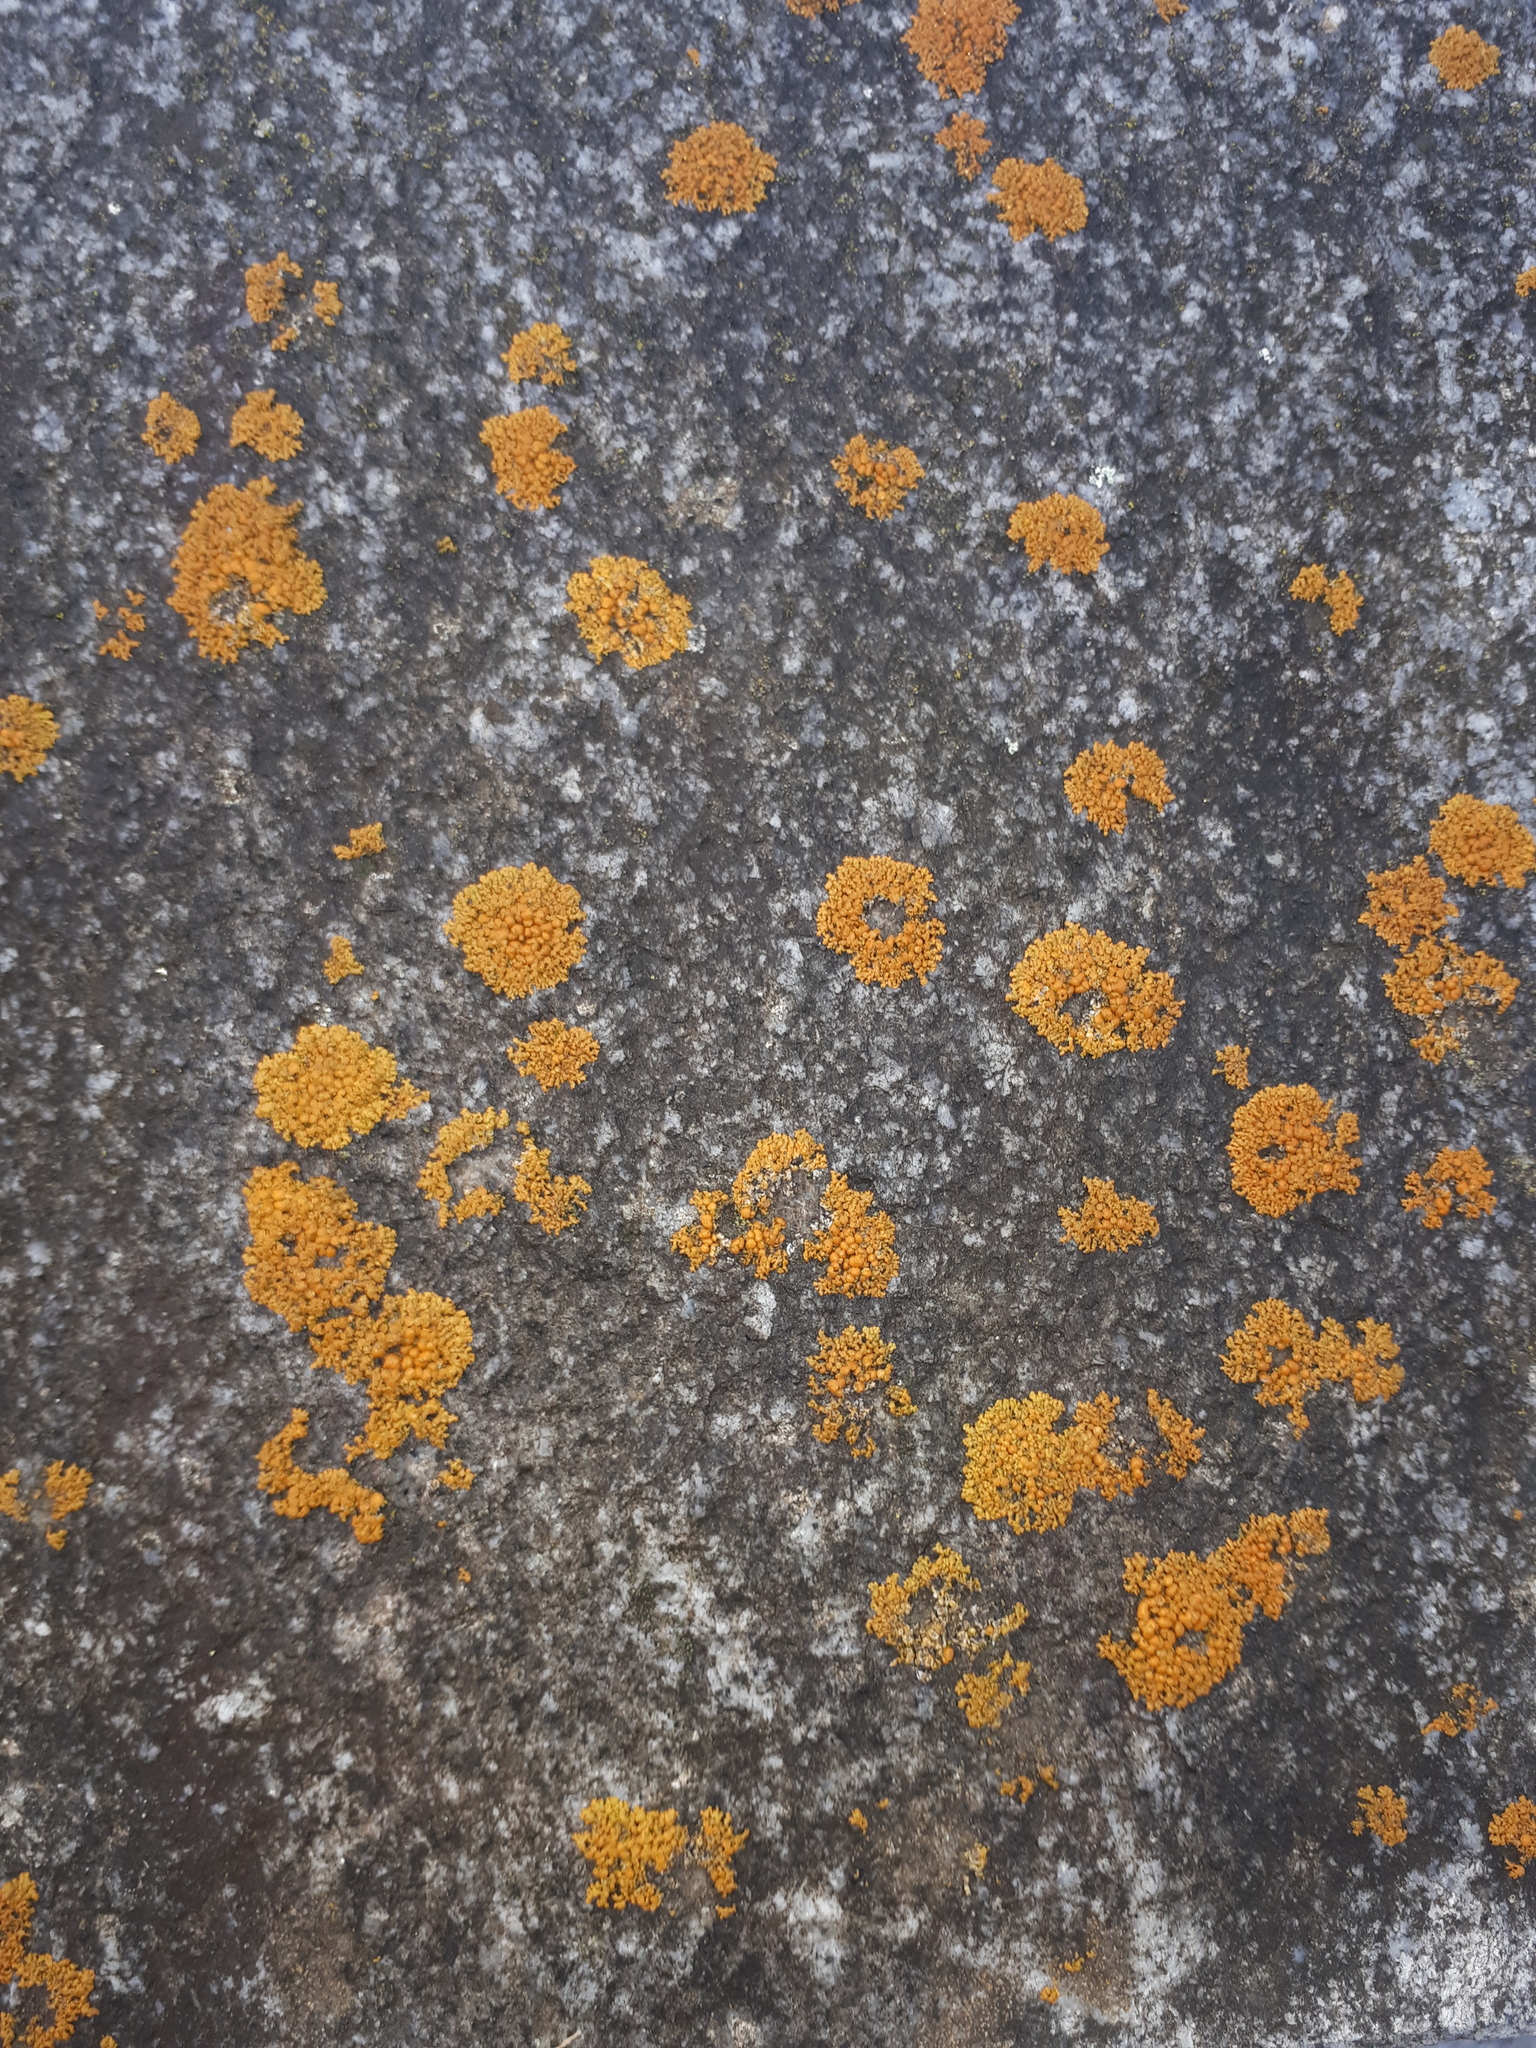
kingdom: Fungi
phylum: Ascomycota
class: Lecanoromycetes
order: Teloschistales
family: Teloschistaceae
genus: Xanthoria
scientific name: Xanthoria elegans
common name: Elegant sunburst lichen
